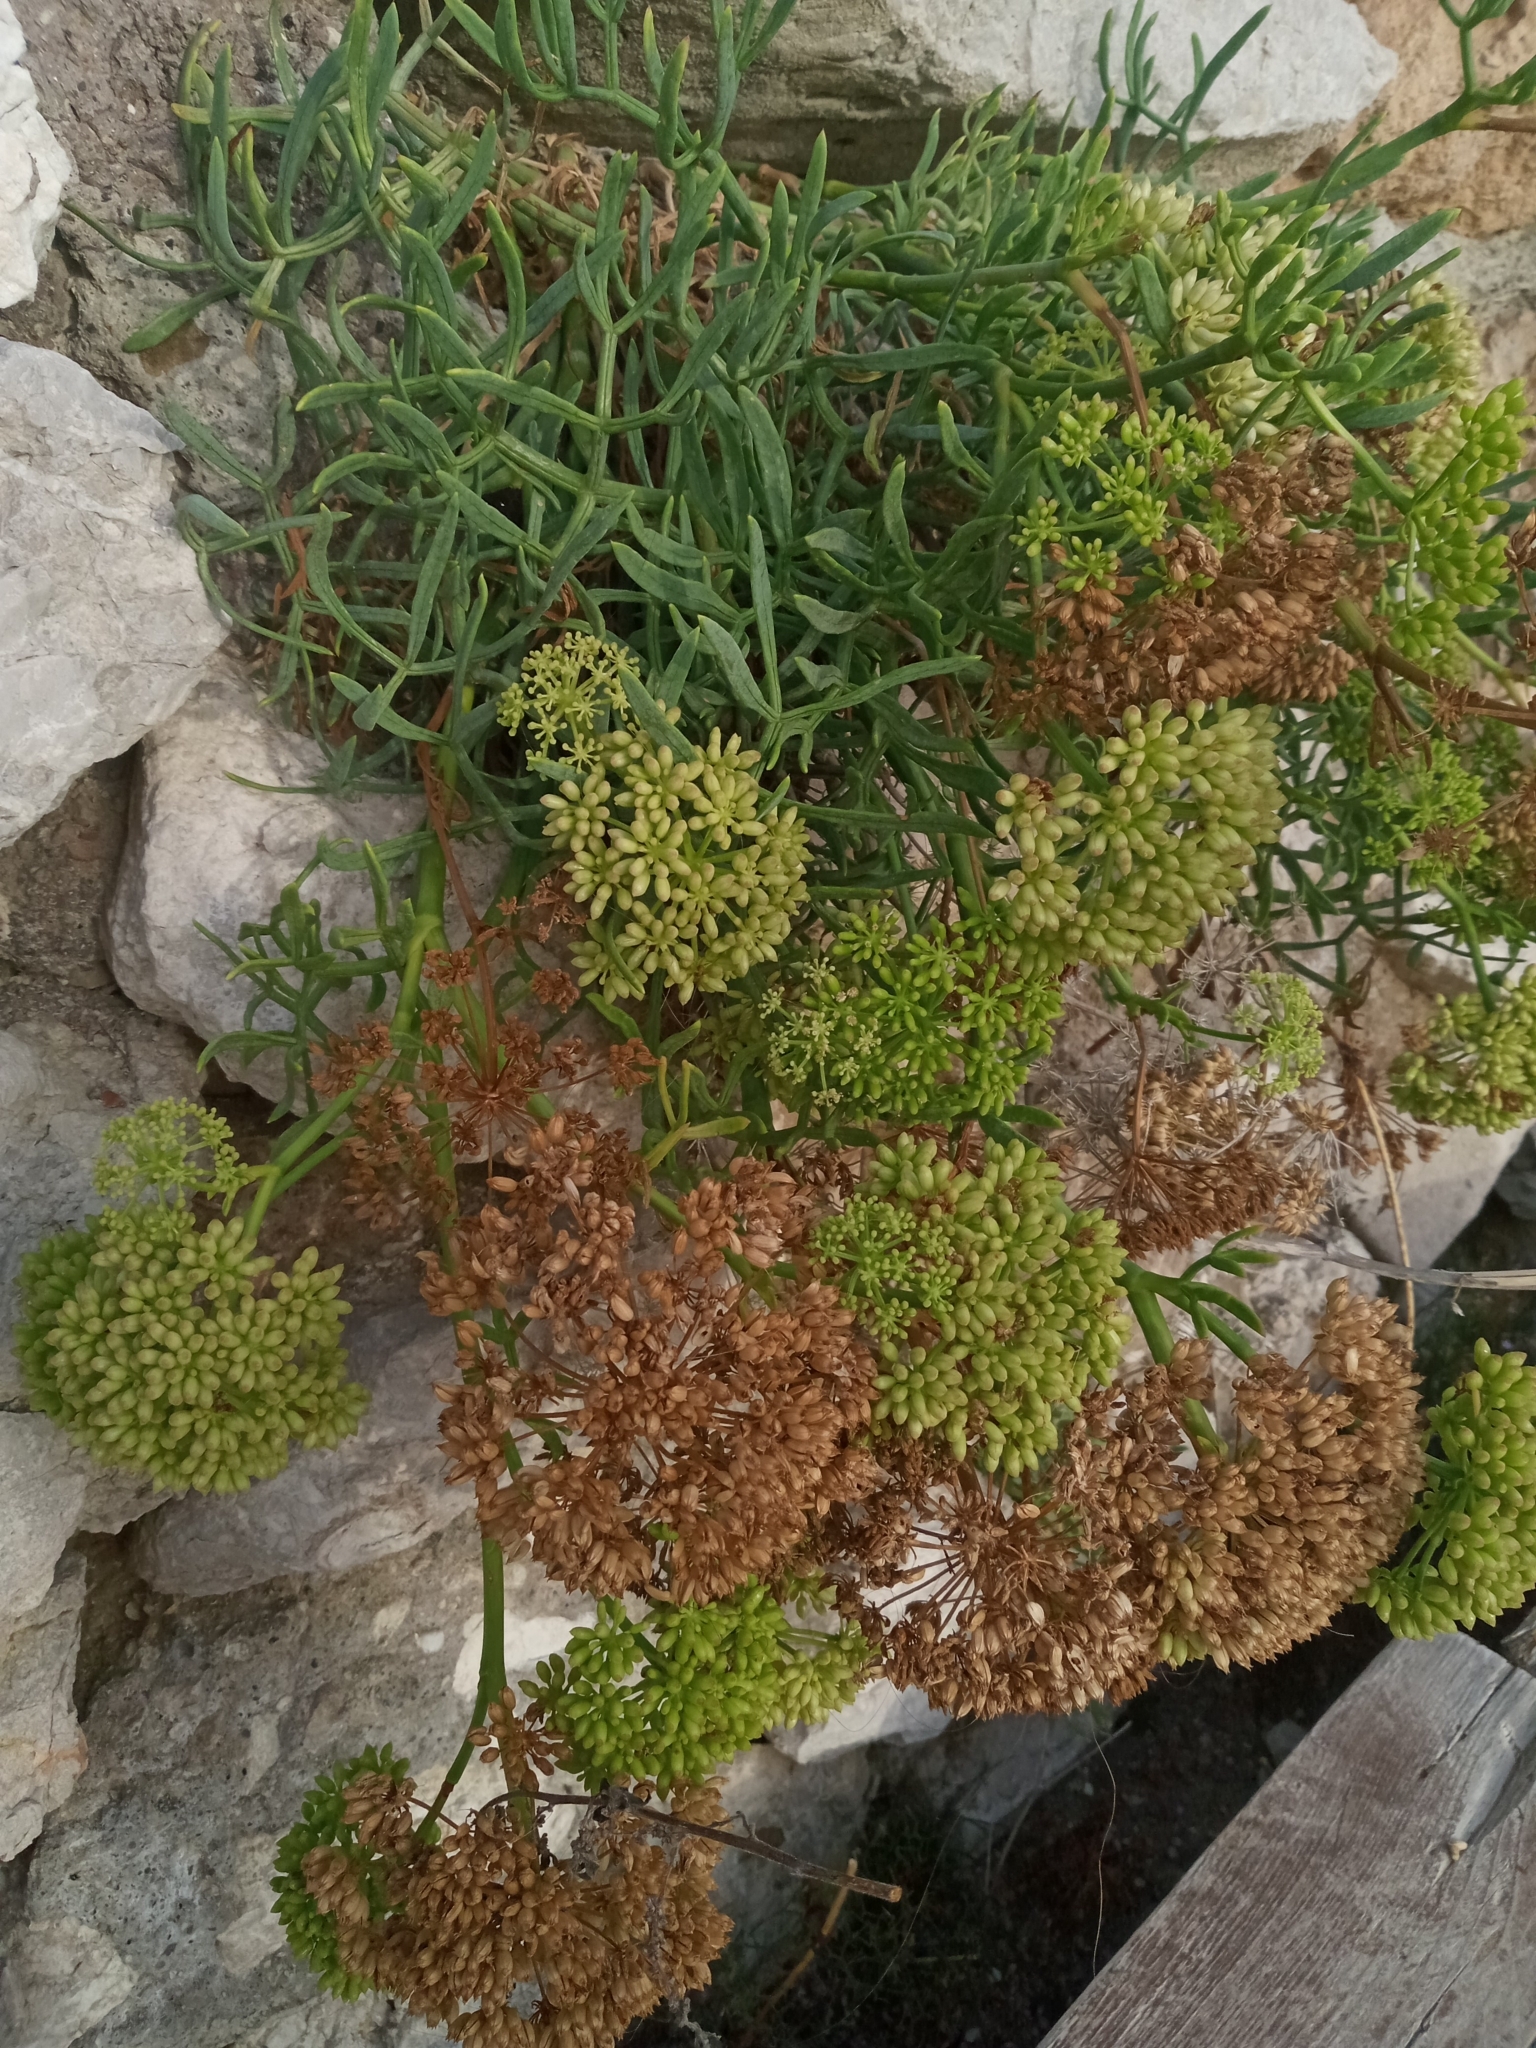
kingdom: Plantae
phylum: Tracheophyta
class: Magnoliopsida
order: Apiales
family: Apiaceae
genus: Crithmum
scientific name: Crithmum maritimum
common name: Rock samphire
